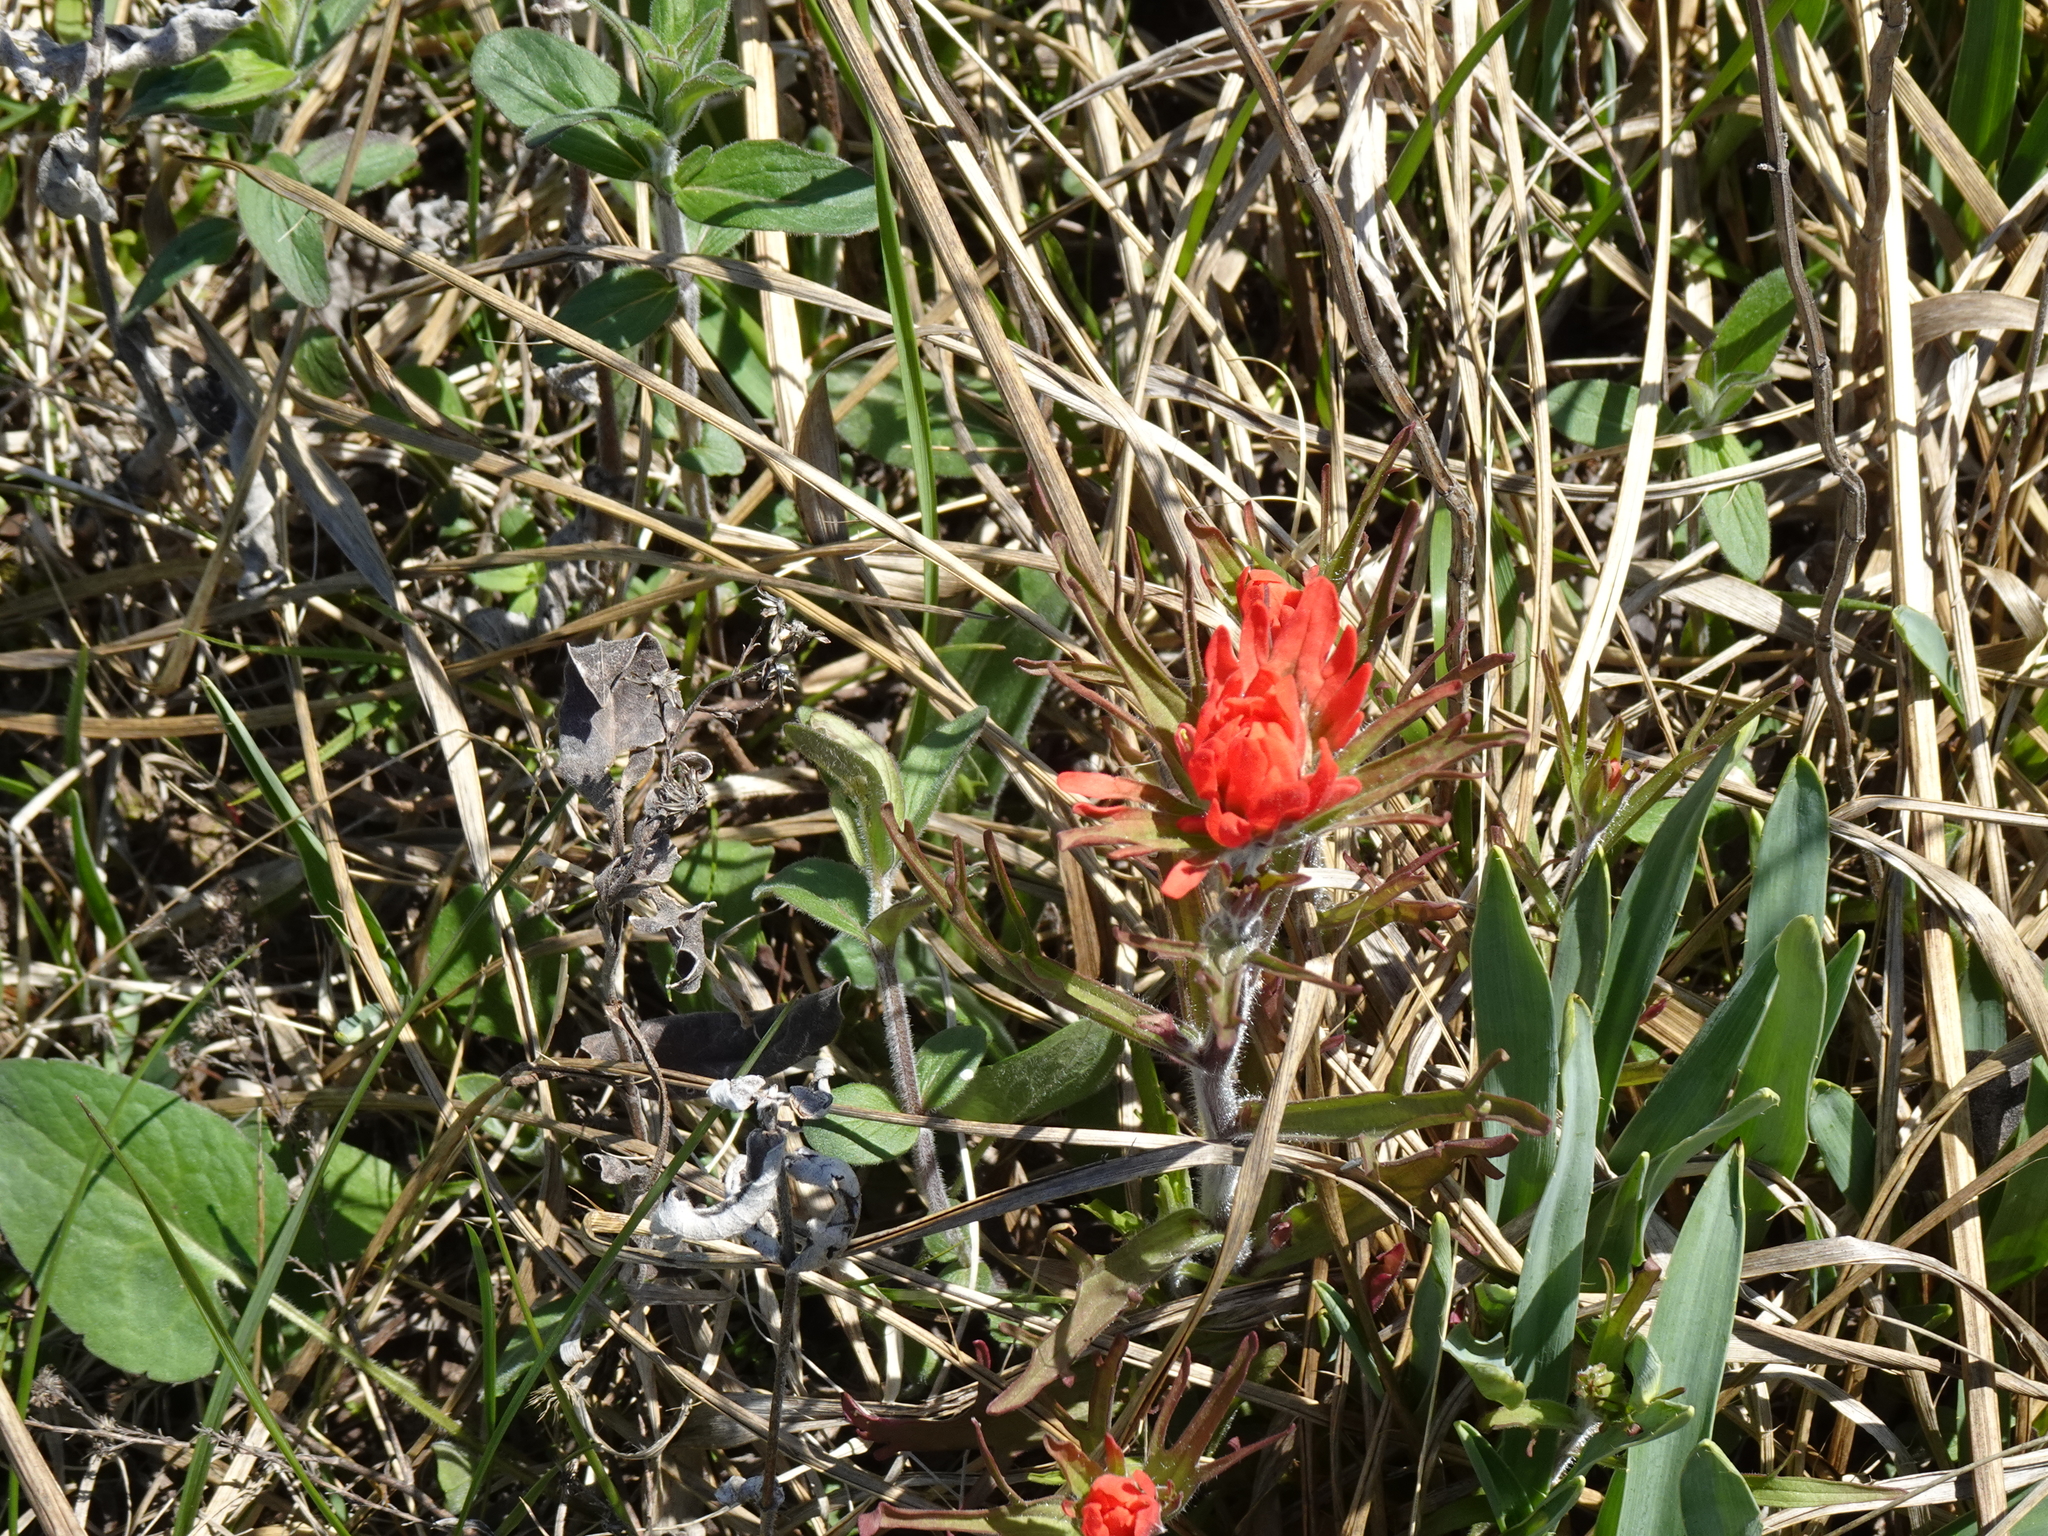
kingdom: Plantae
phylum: Tracheophyta
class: Magnoliopsida
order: Lamiales
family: Orobanchaceae
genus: Castilleja
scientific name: Castilleja coccinea
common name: Scarlet paintbrush
